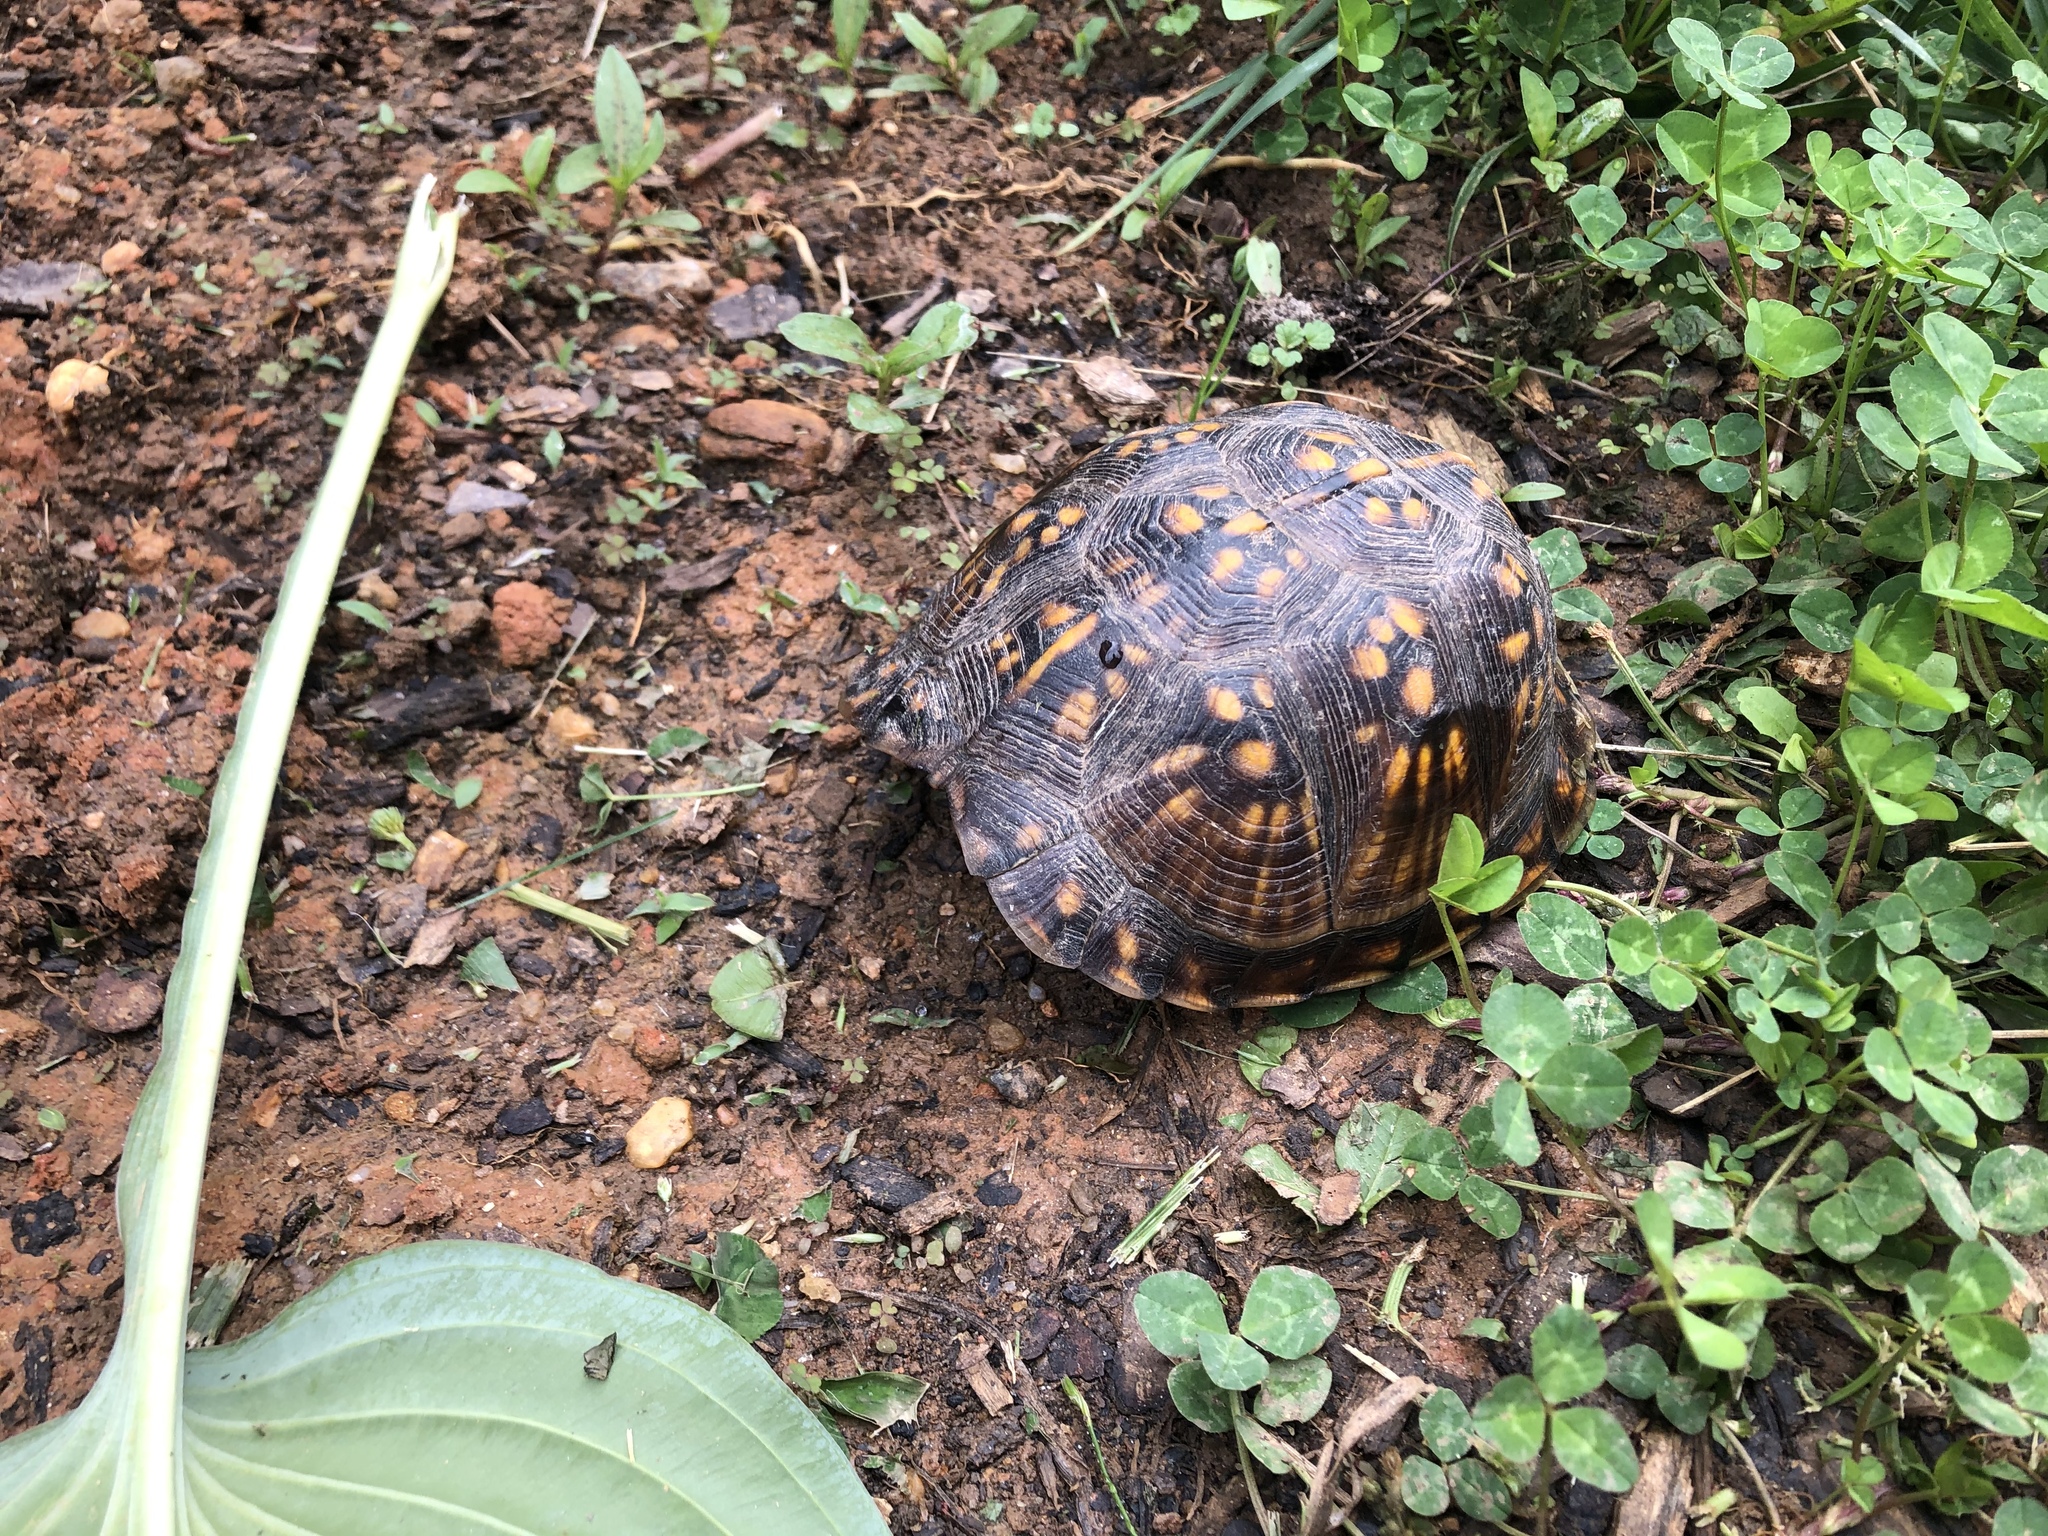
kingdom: Animalia
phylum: Chordata
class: Testudines
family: Emydidae
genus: Terrapene
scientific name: Terrapene carolina
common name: Common box turtle
